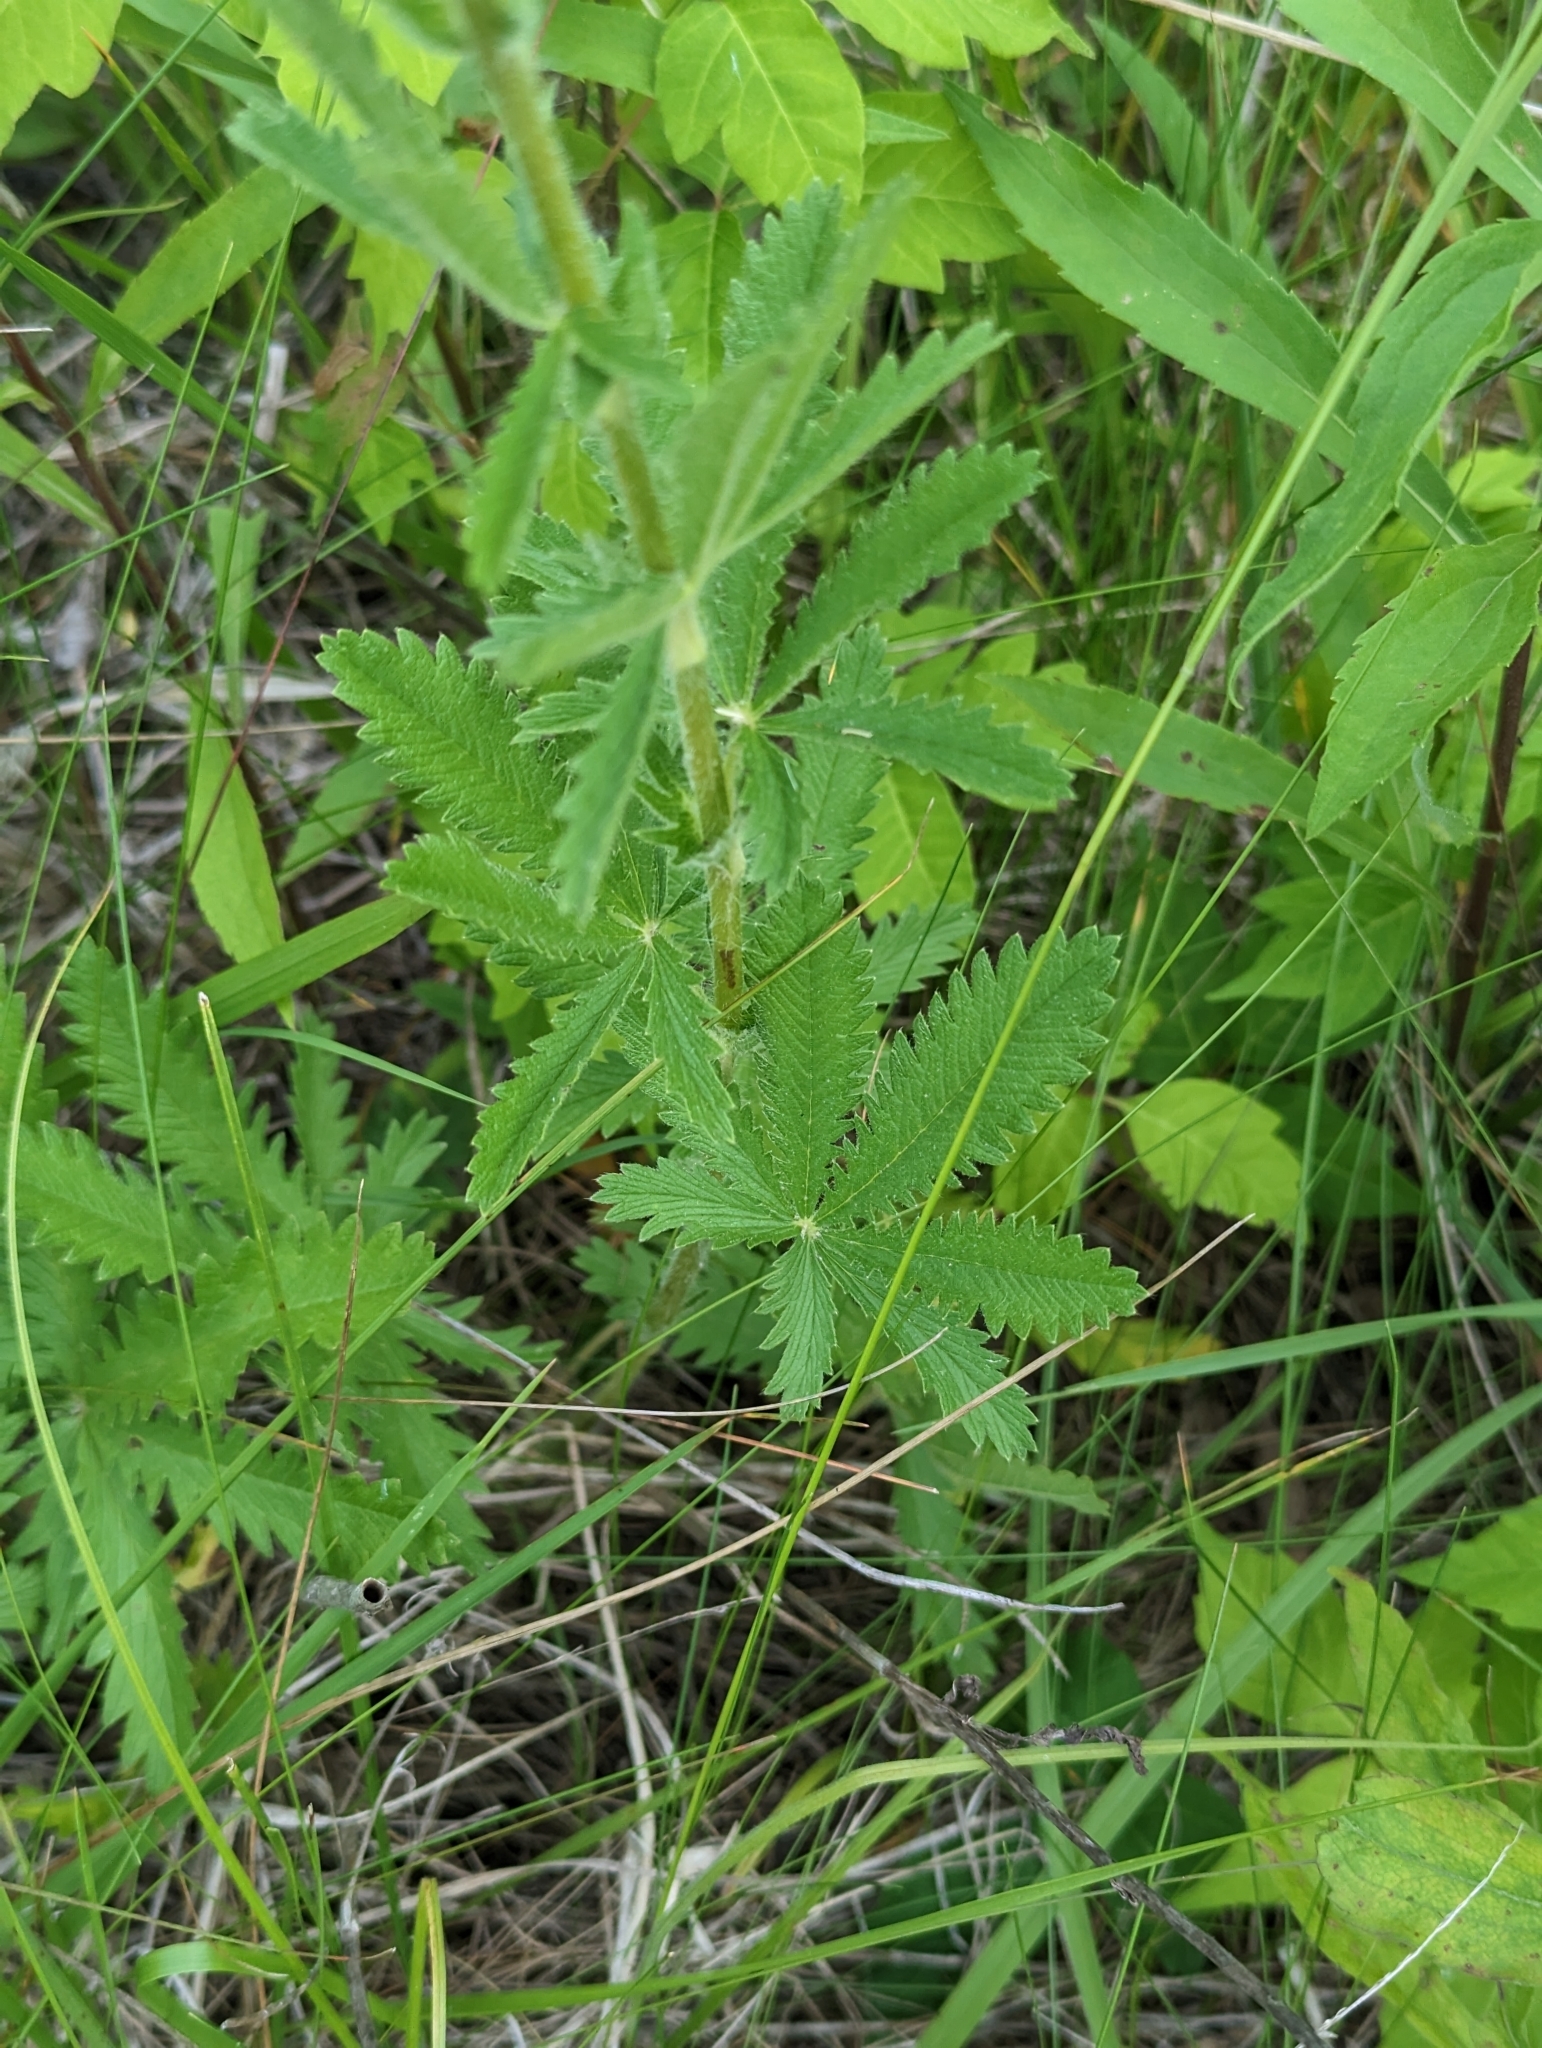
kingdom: Plantae
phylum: Tracheophyta
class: Magnoliopsida
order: Rosales
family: Rosaceae
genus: Potentilla
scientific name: Potentilla recta
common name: Sulphur cinquefoil
